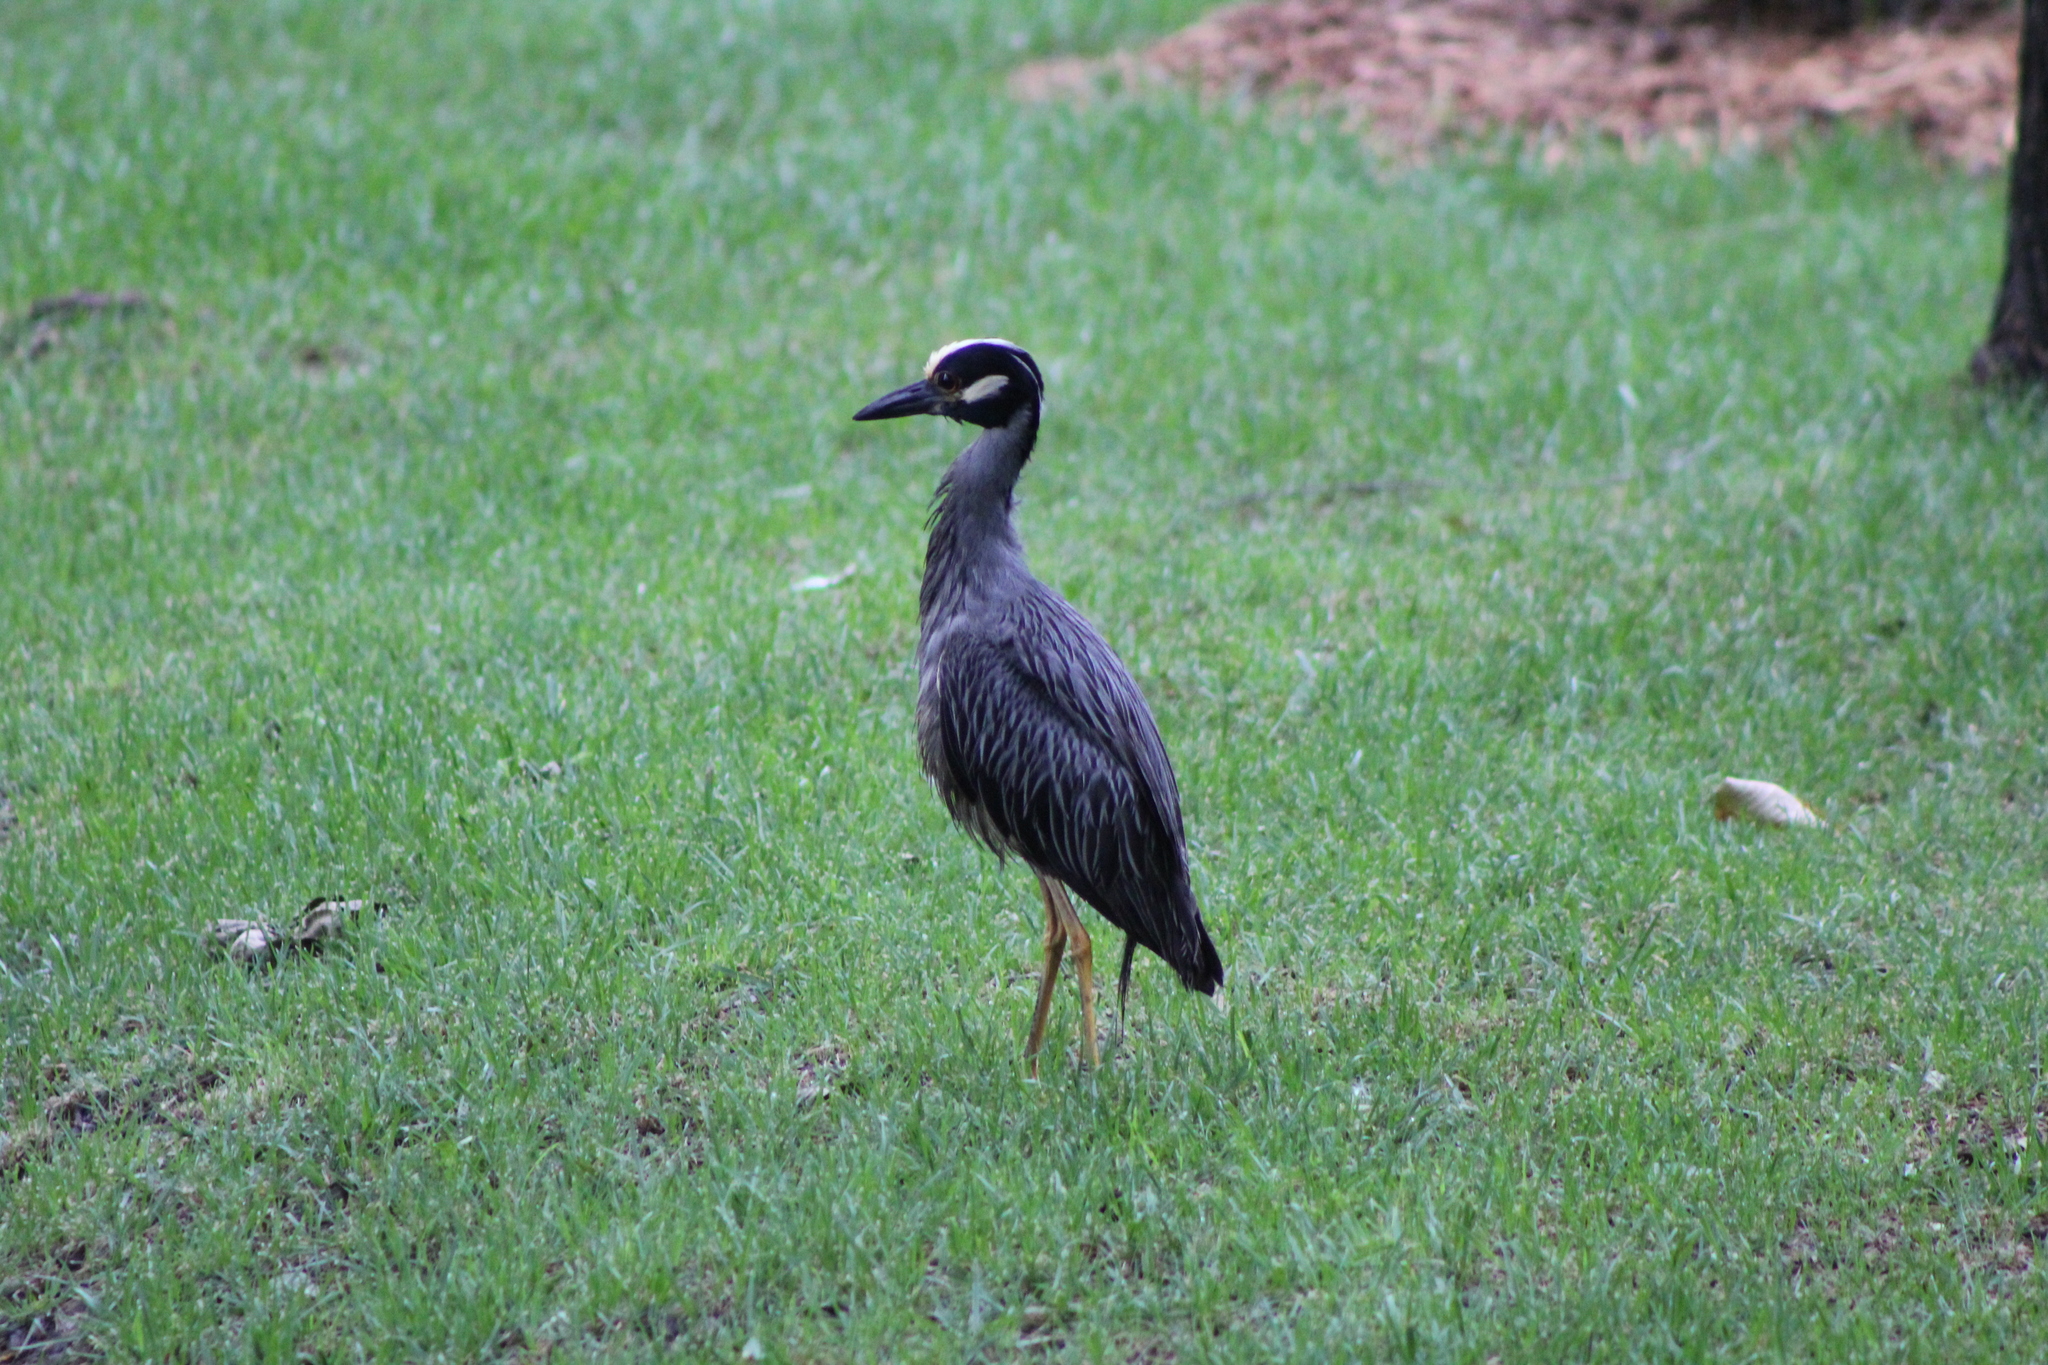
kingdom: Animalia
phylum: Chordata
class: Aves
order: Pelecaniformes
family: Ardeidae
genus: Nyctanassa
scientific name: Nyctanassa violacea
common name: Yellow-crowned night heron
